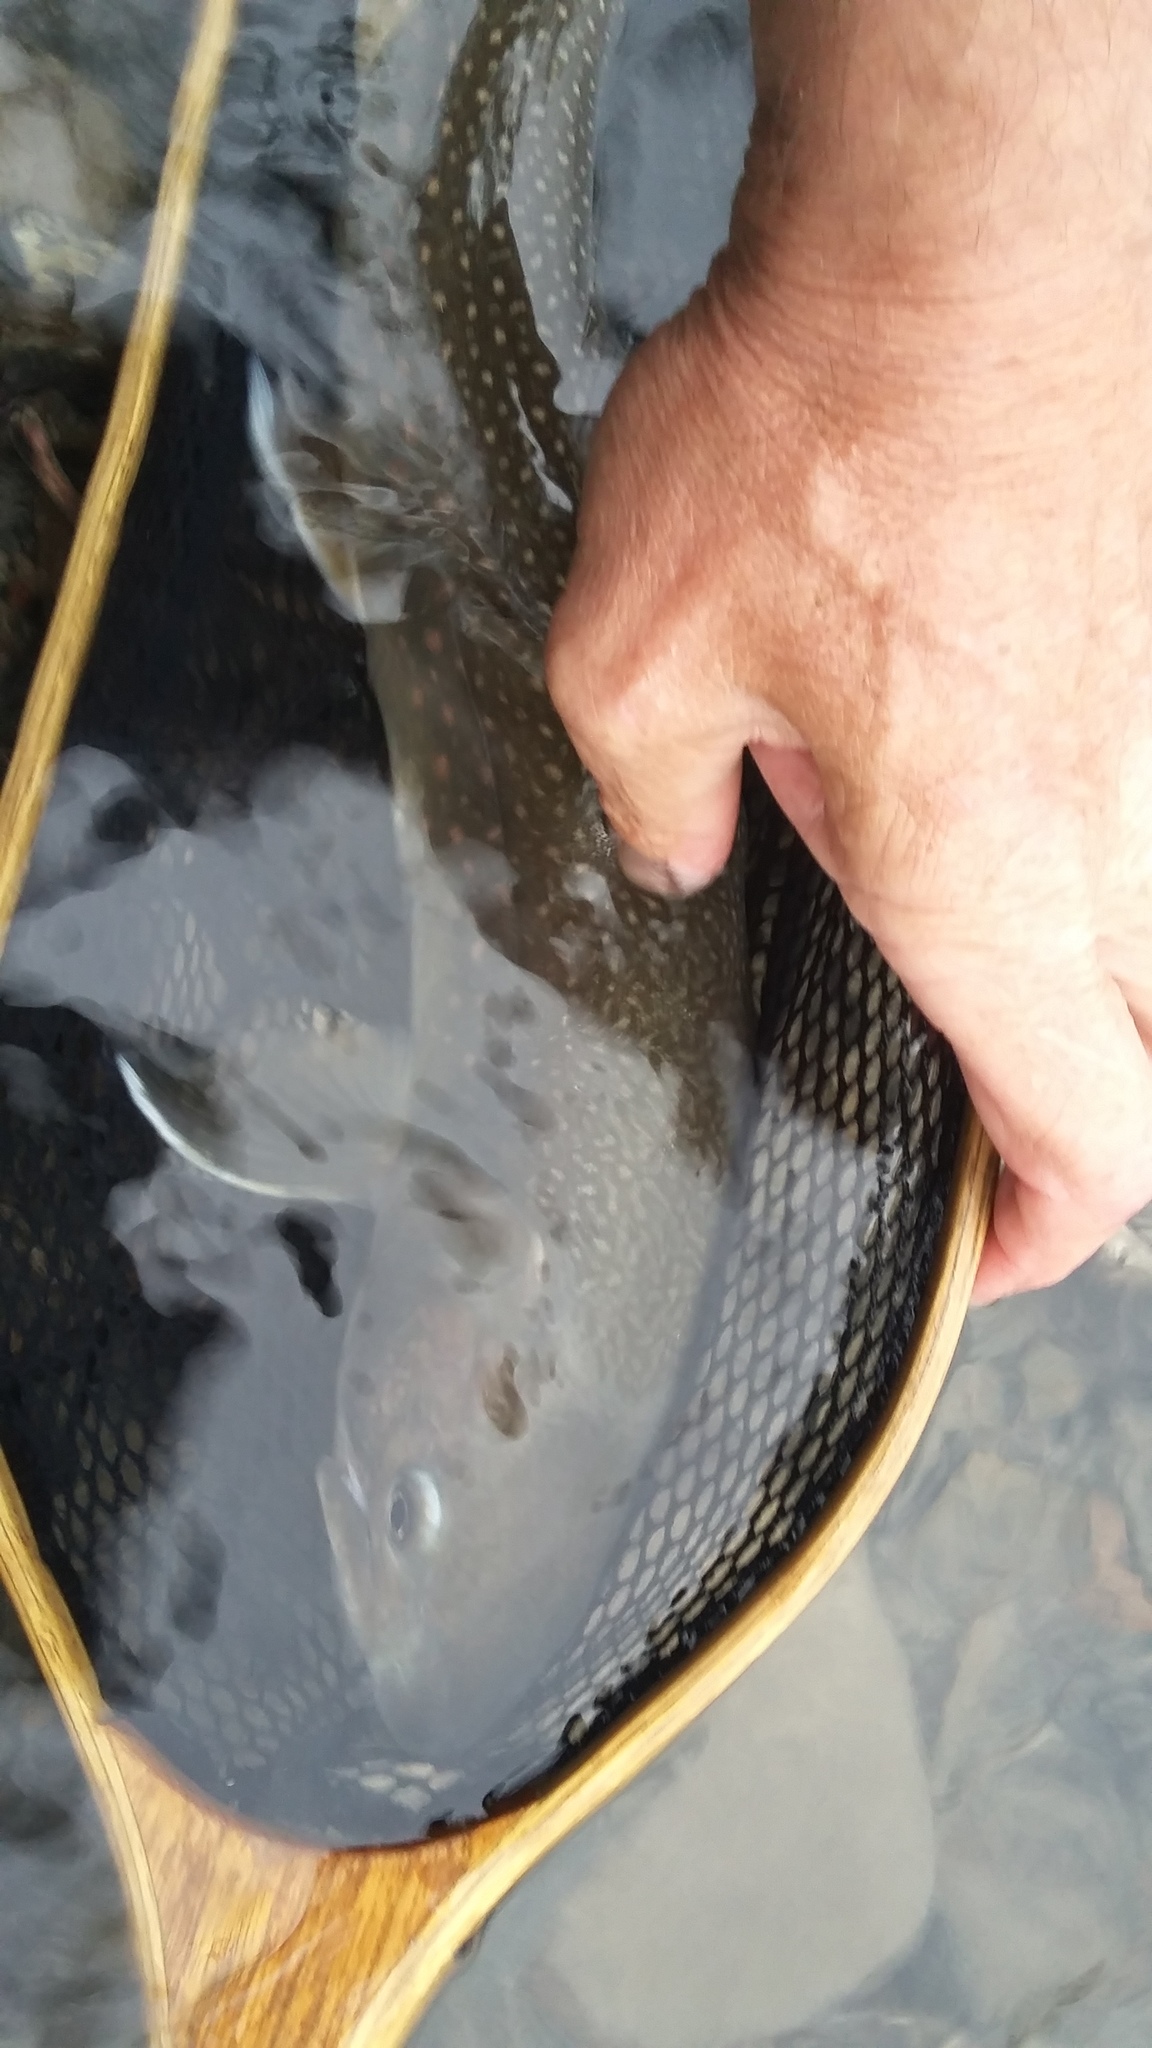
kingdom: Animalia
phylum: Chordata
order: Salmoniformes
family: Salmonidae
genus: Salvelinus
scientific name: Salvelinus confluentus
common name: Bull trout
